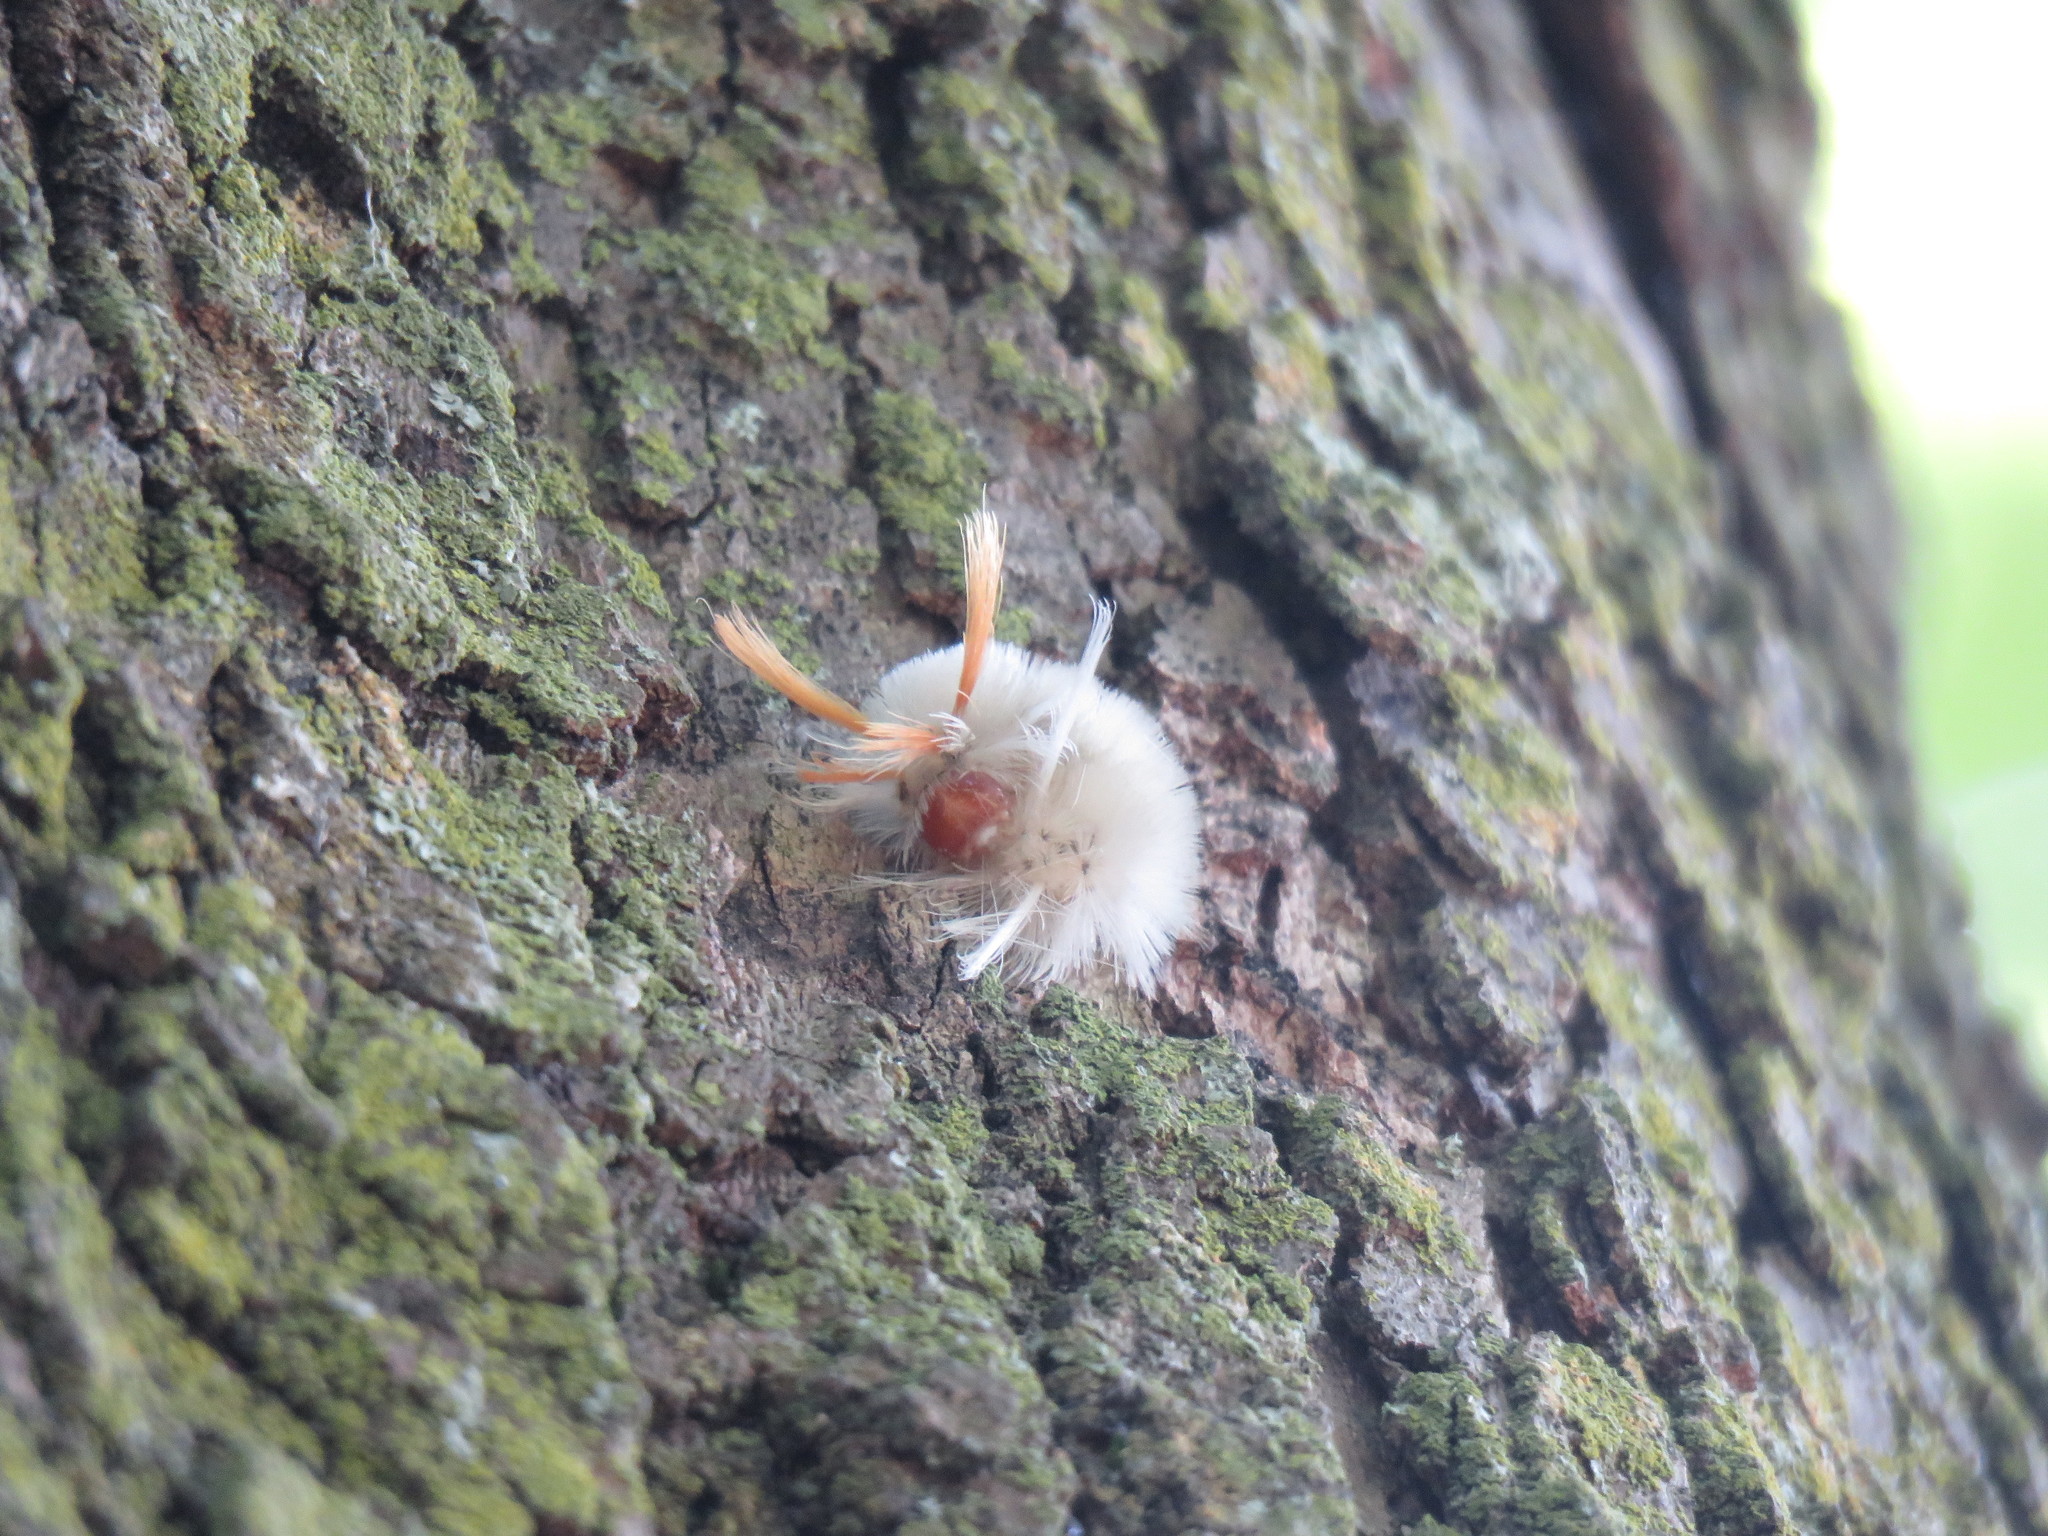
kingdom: Animalia
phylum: Arthropoda
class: Insecta
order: Lepidoptera
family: Erebidae
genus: Halysidota
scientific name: Halysidota harrisii
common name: Sycamore tussock moth
